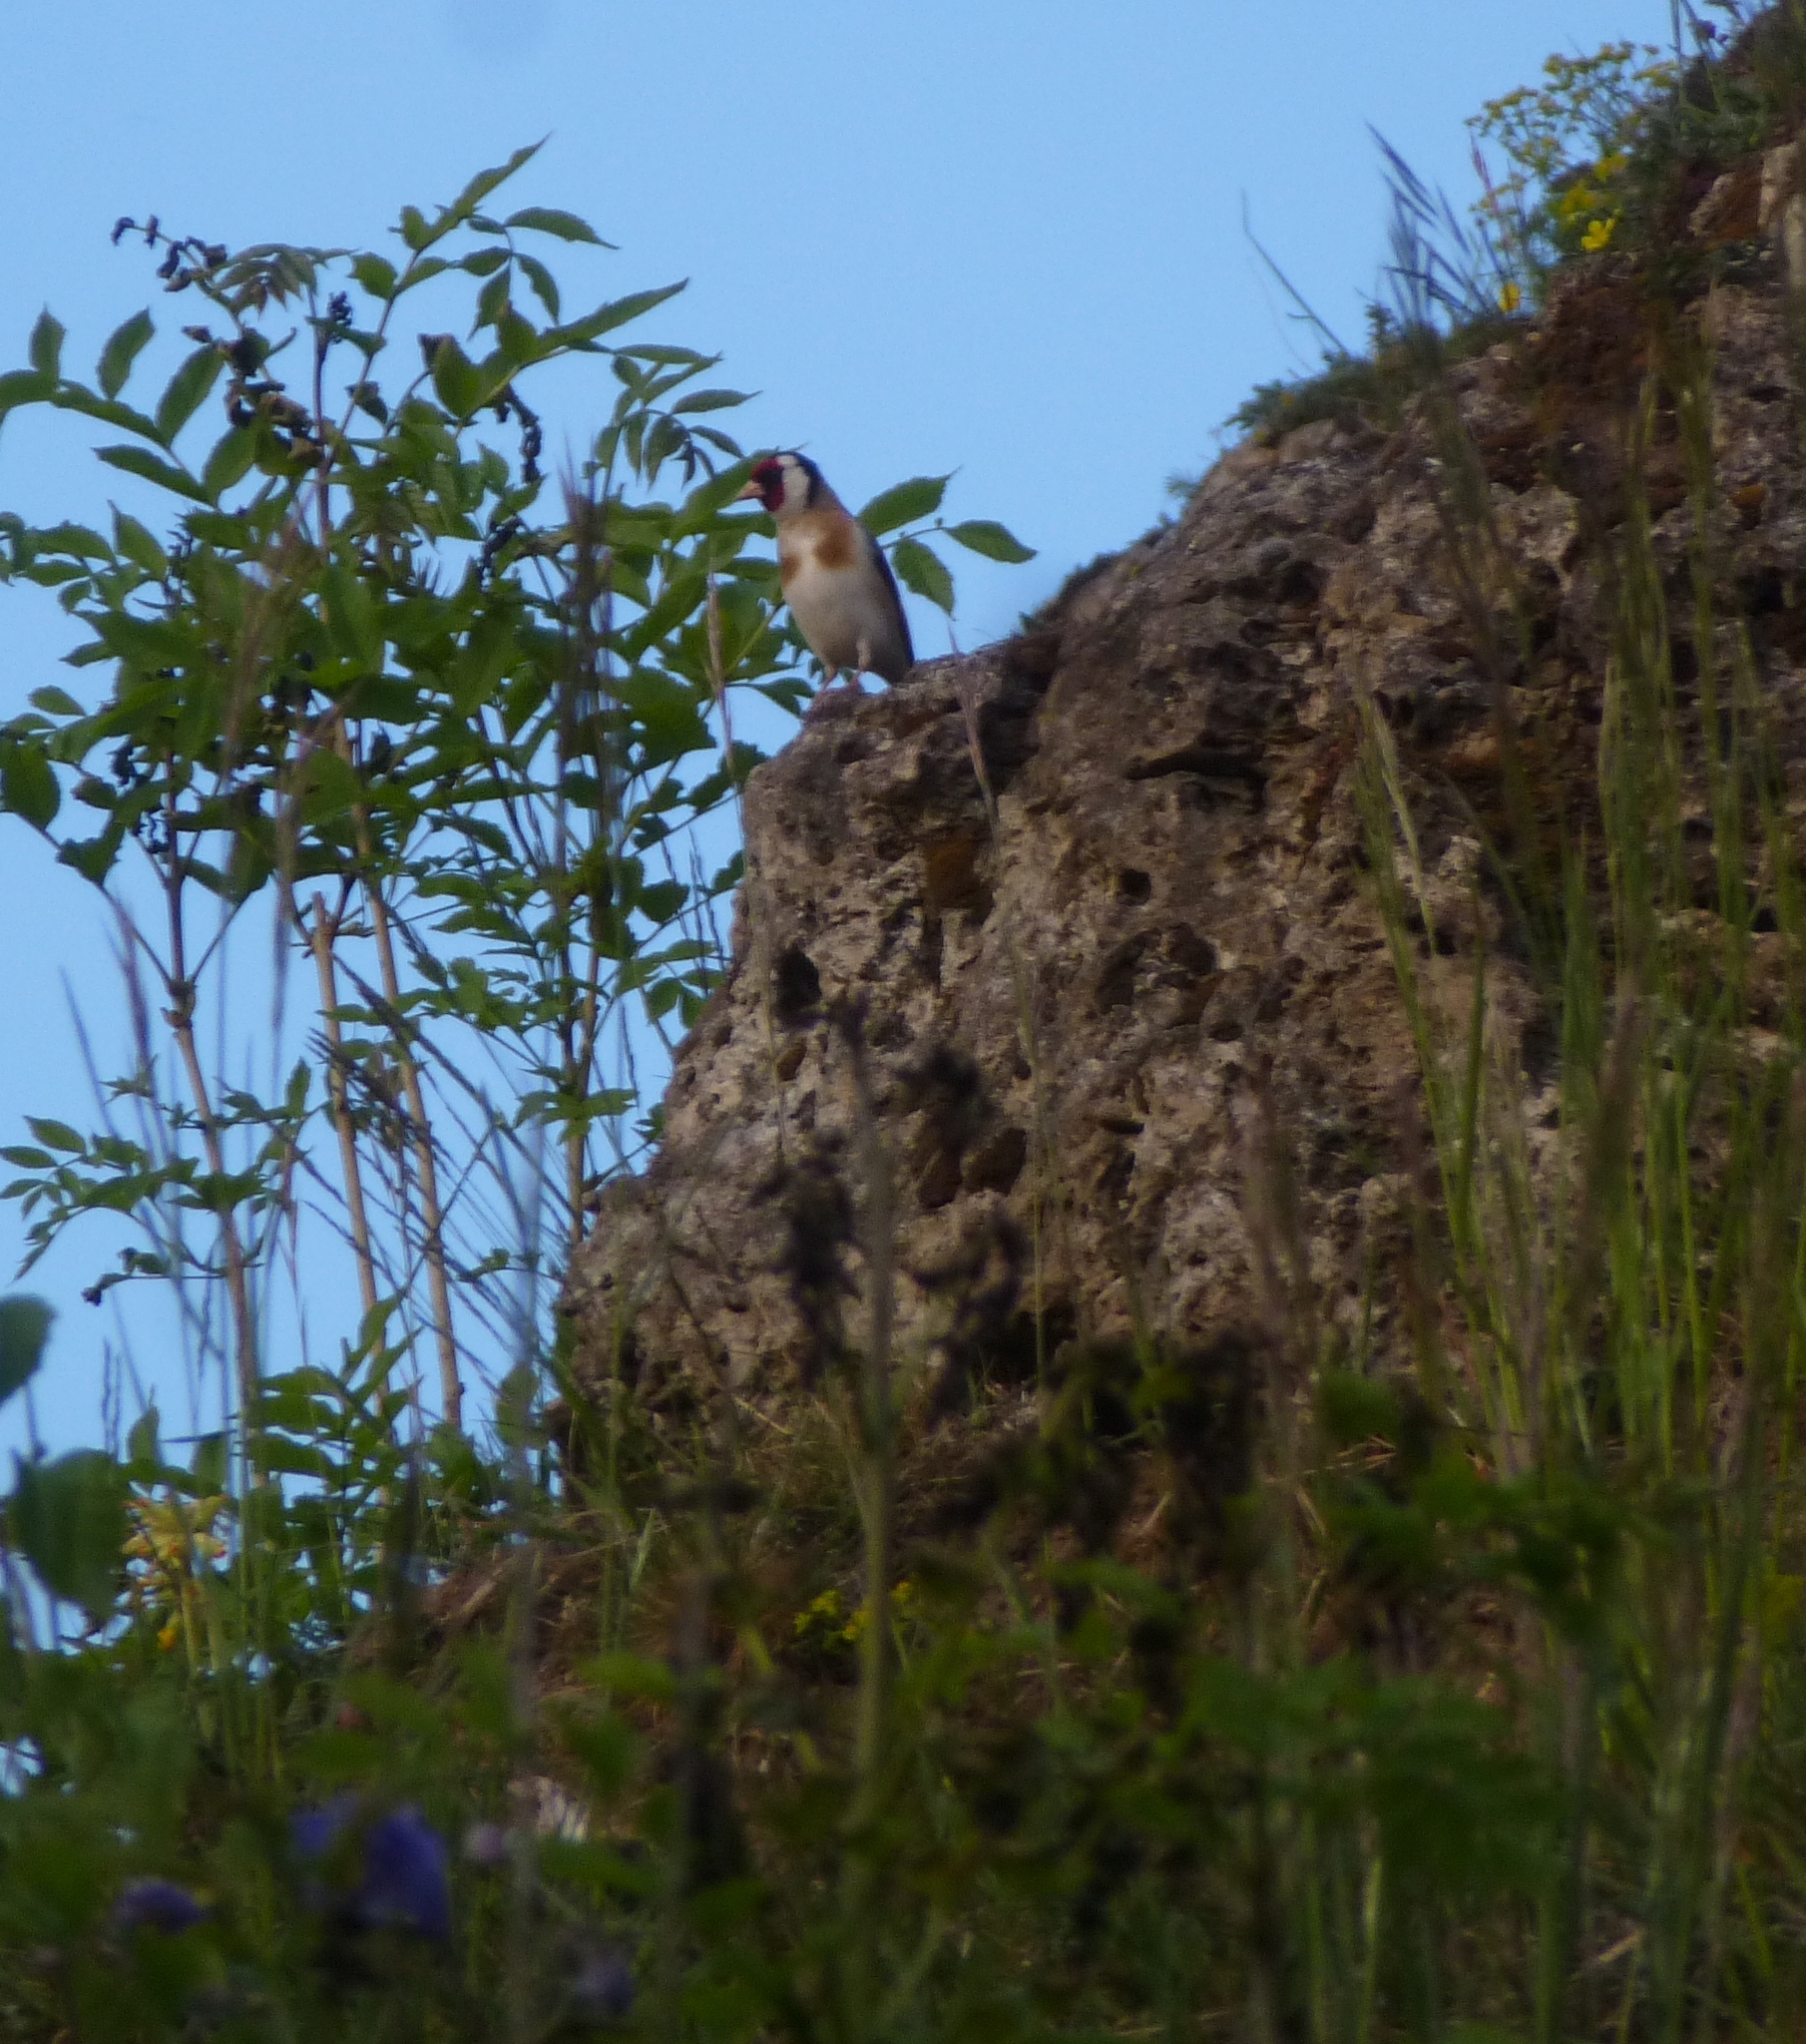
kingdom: Animalia
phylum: Chordata
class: Aves
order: Passeriformes
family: Fringillidae
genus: Carduelis
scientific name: Carduelis carduelis
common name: European goldfinch
